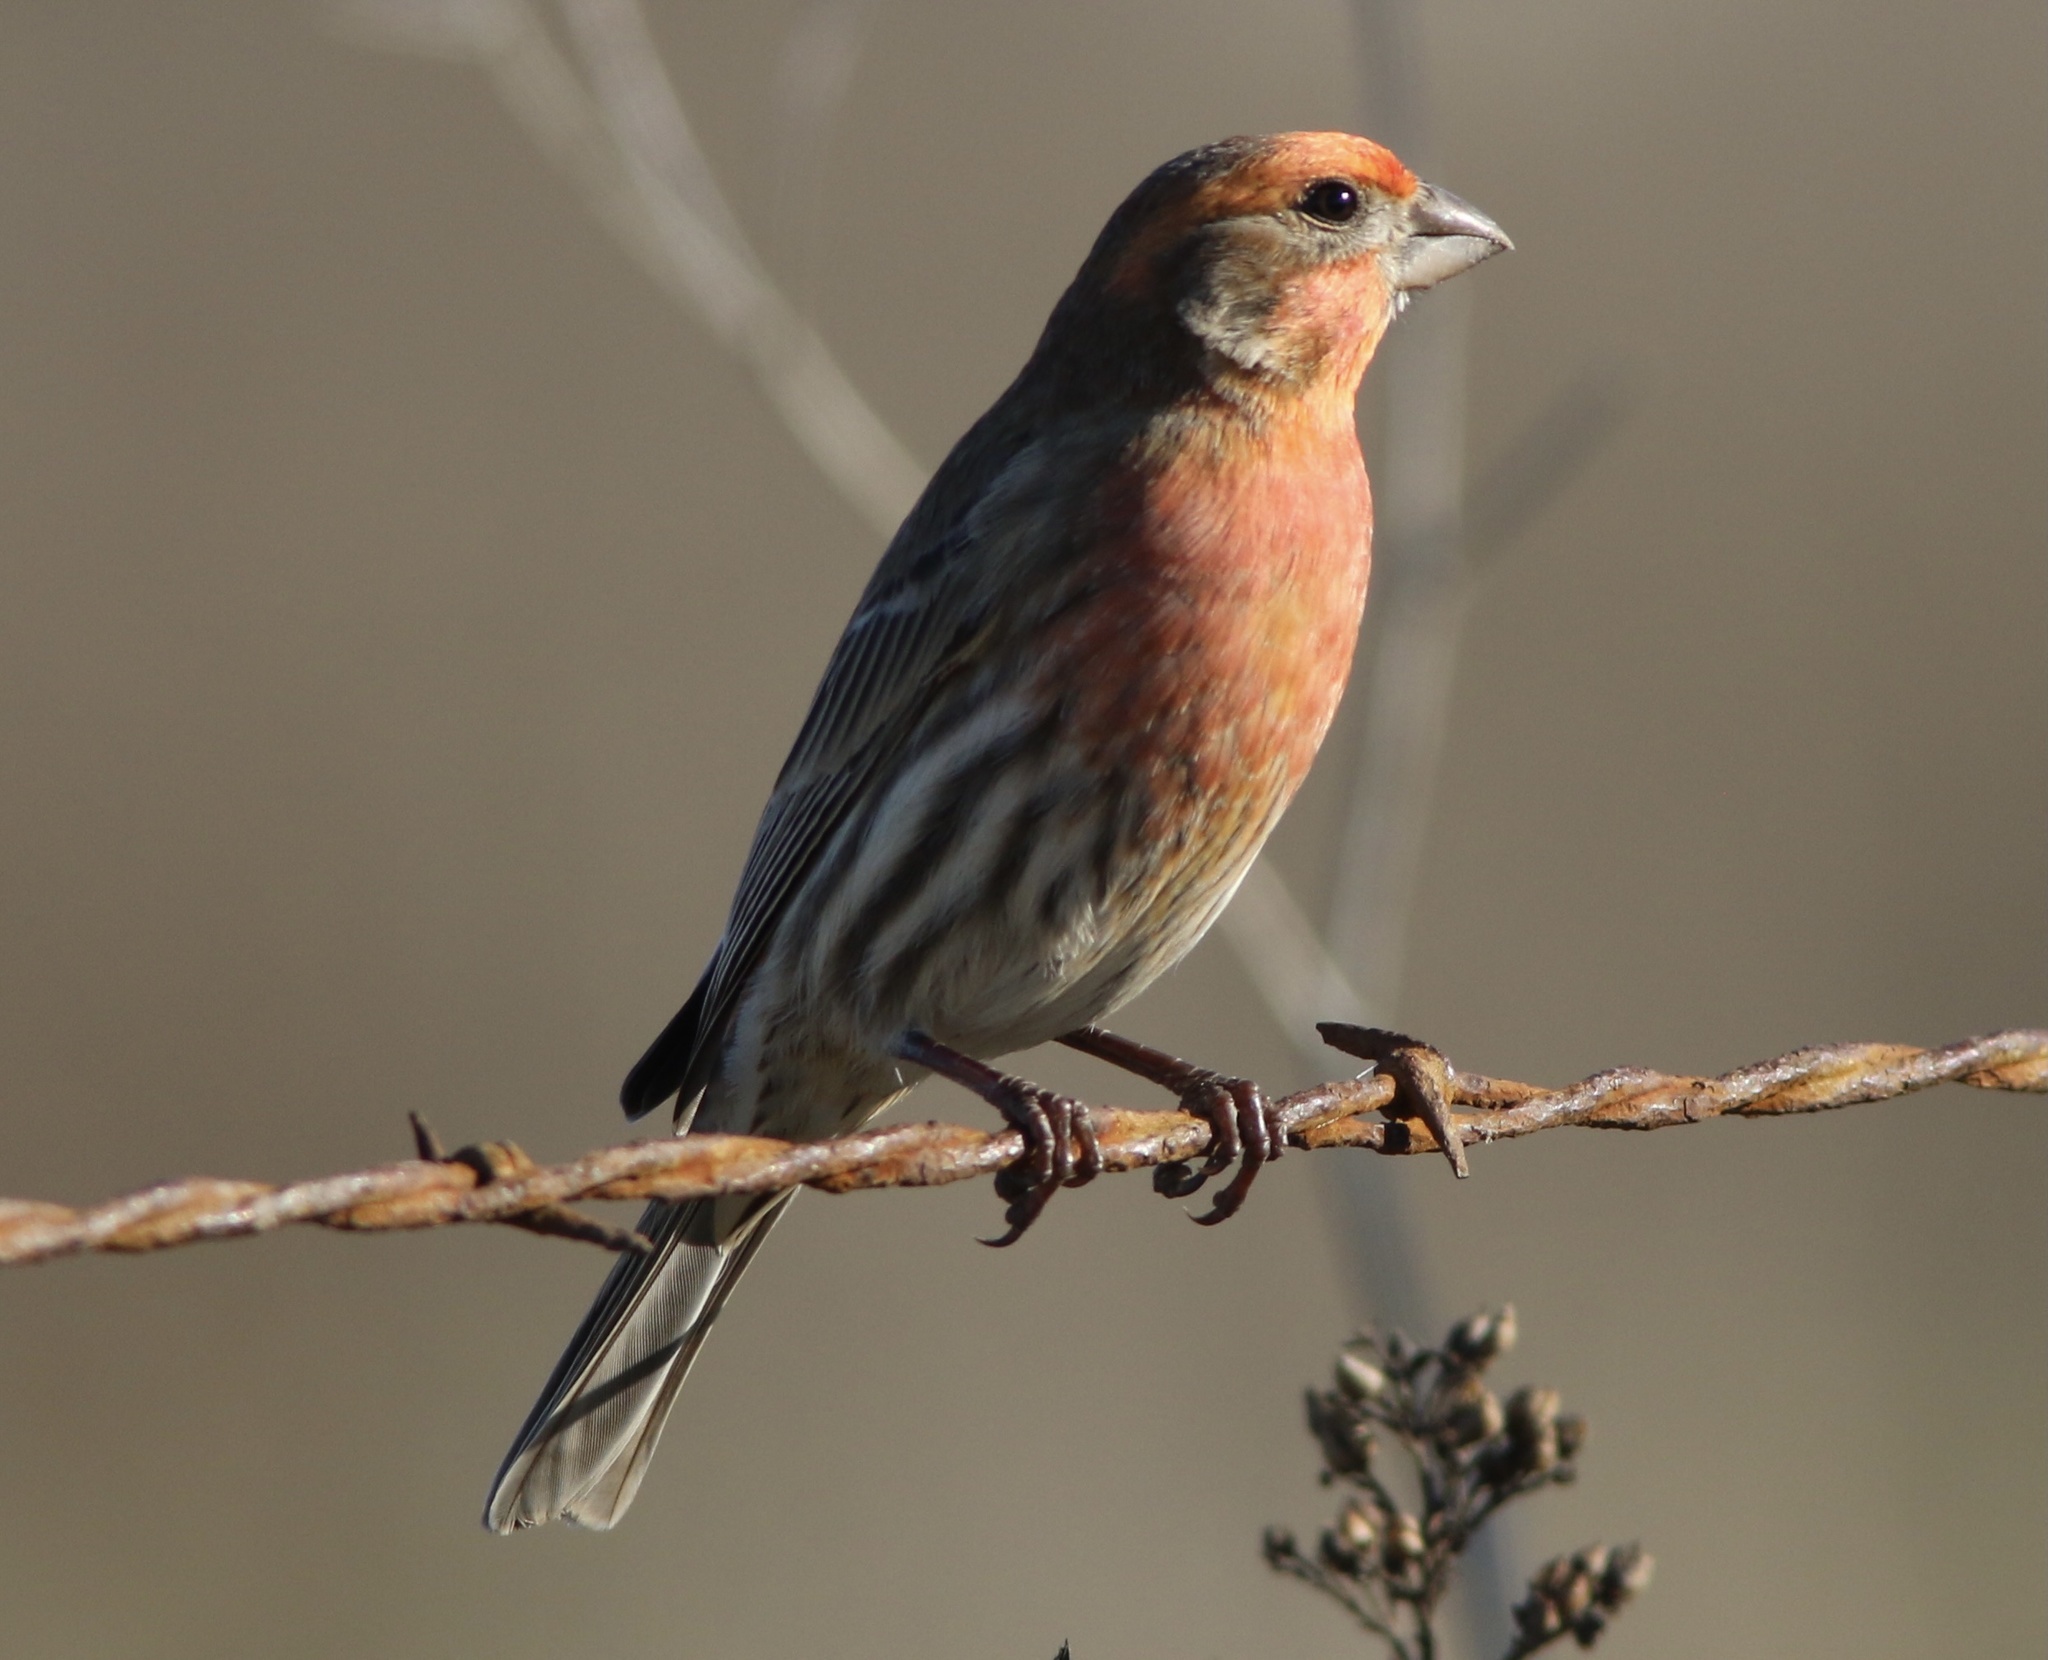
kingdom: Animalia
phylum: Chordata
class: Aves
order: Passeriformes
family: Fringillidae
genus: Haemorhous
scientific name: Haemorhous mexicanus
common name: House finch
